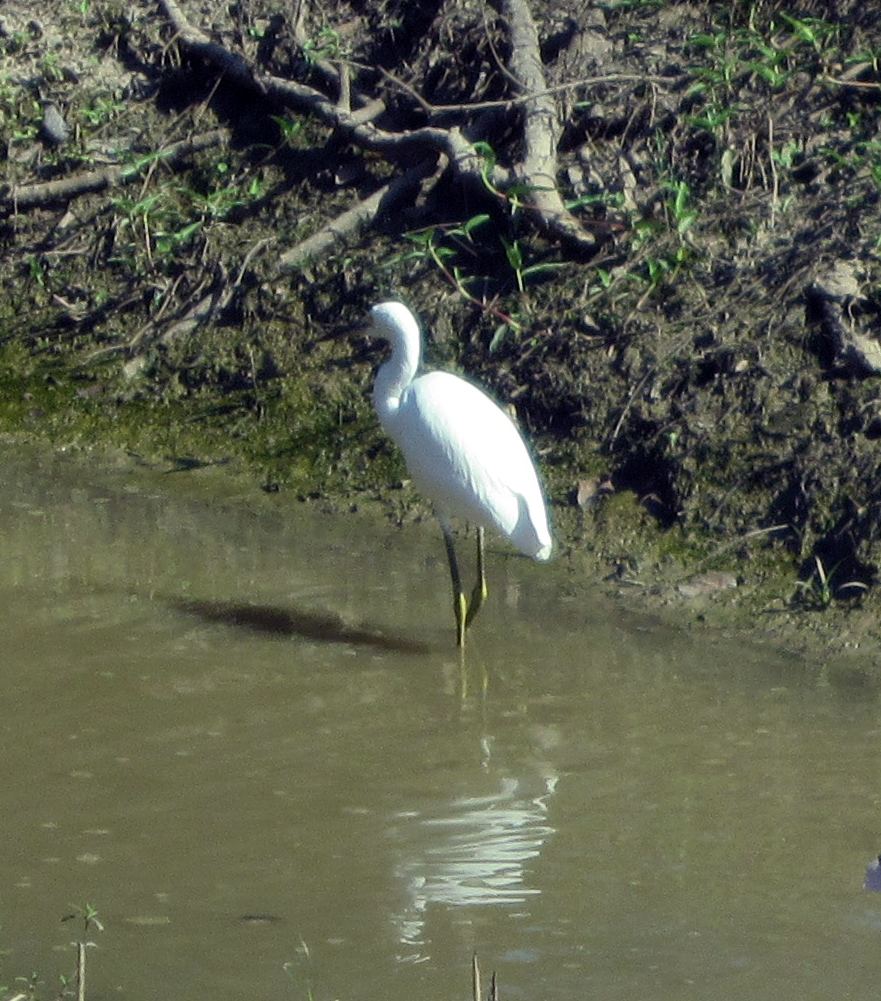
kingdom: Animalia
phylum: Chordata
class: Aves
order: Pelecaniformes
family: Ardeidae
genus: Egretta
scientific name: Egretta thula
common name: Snowy egret
